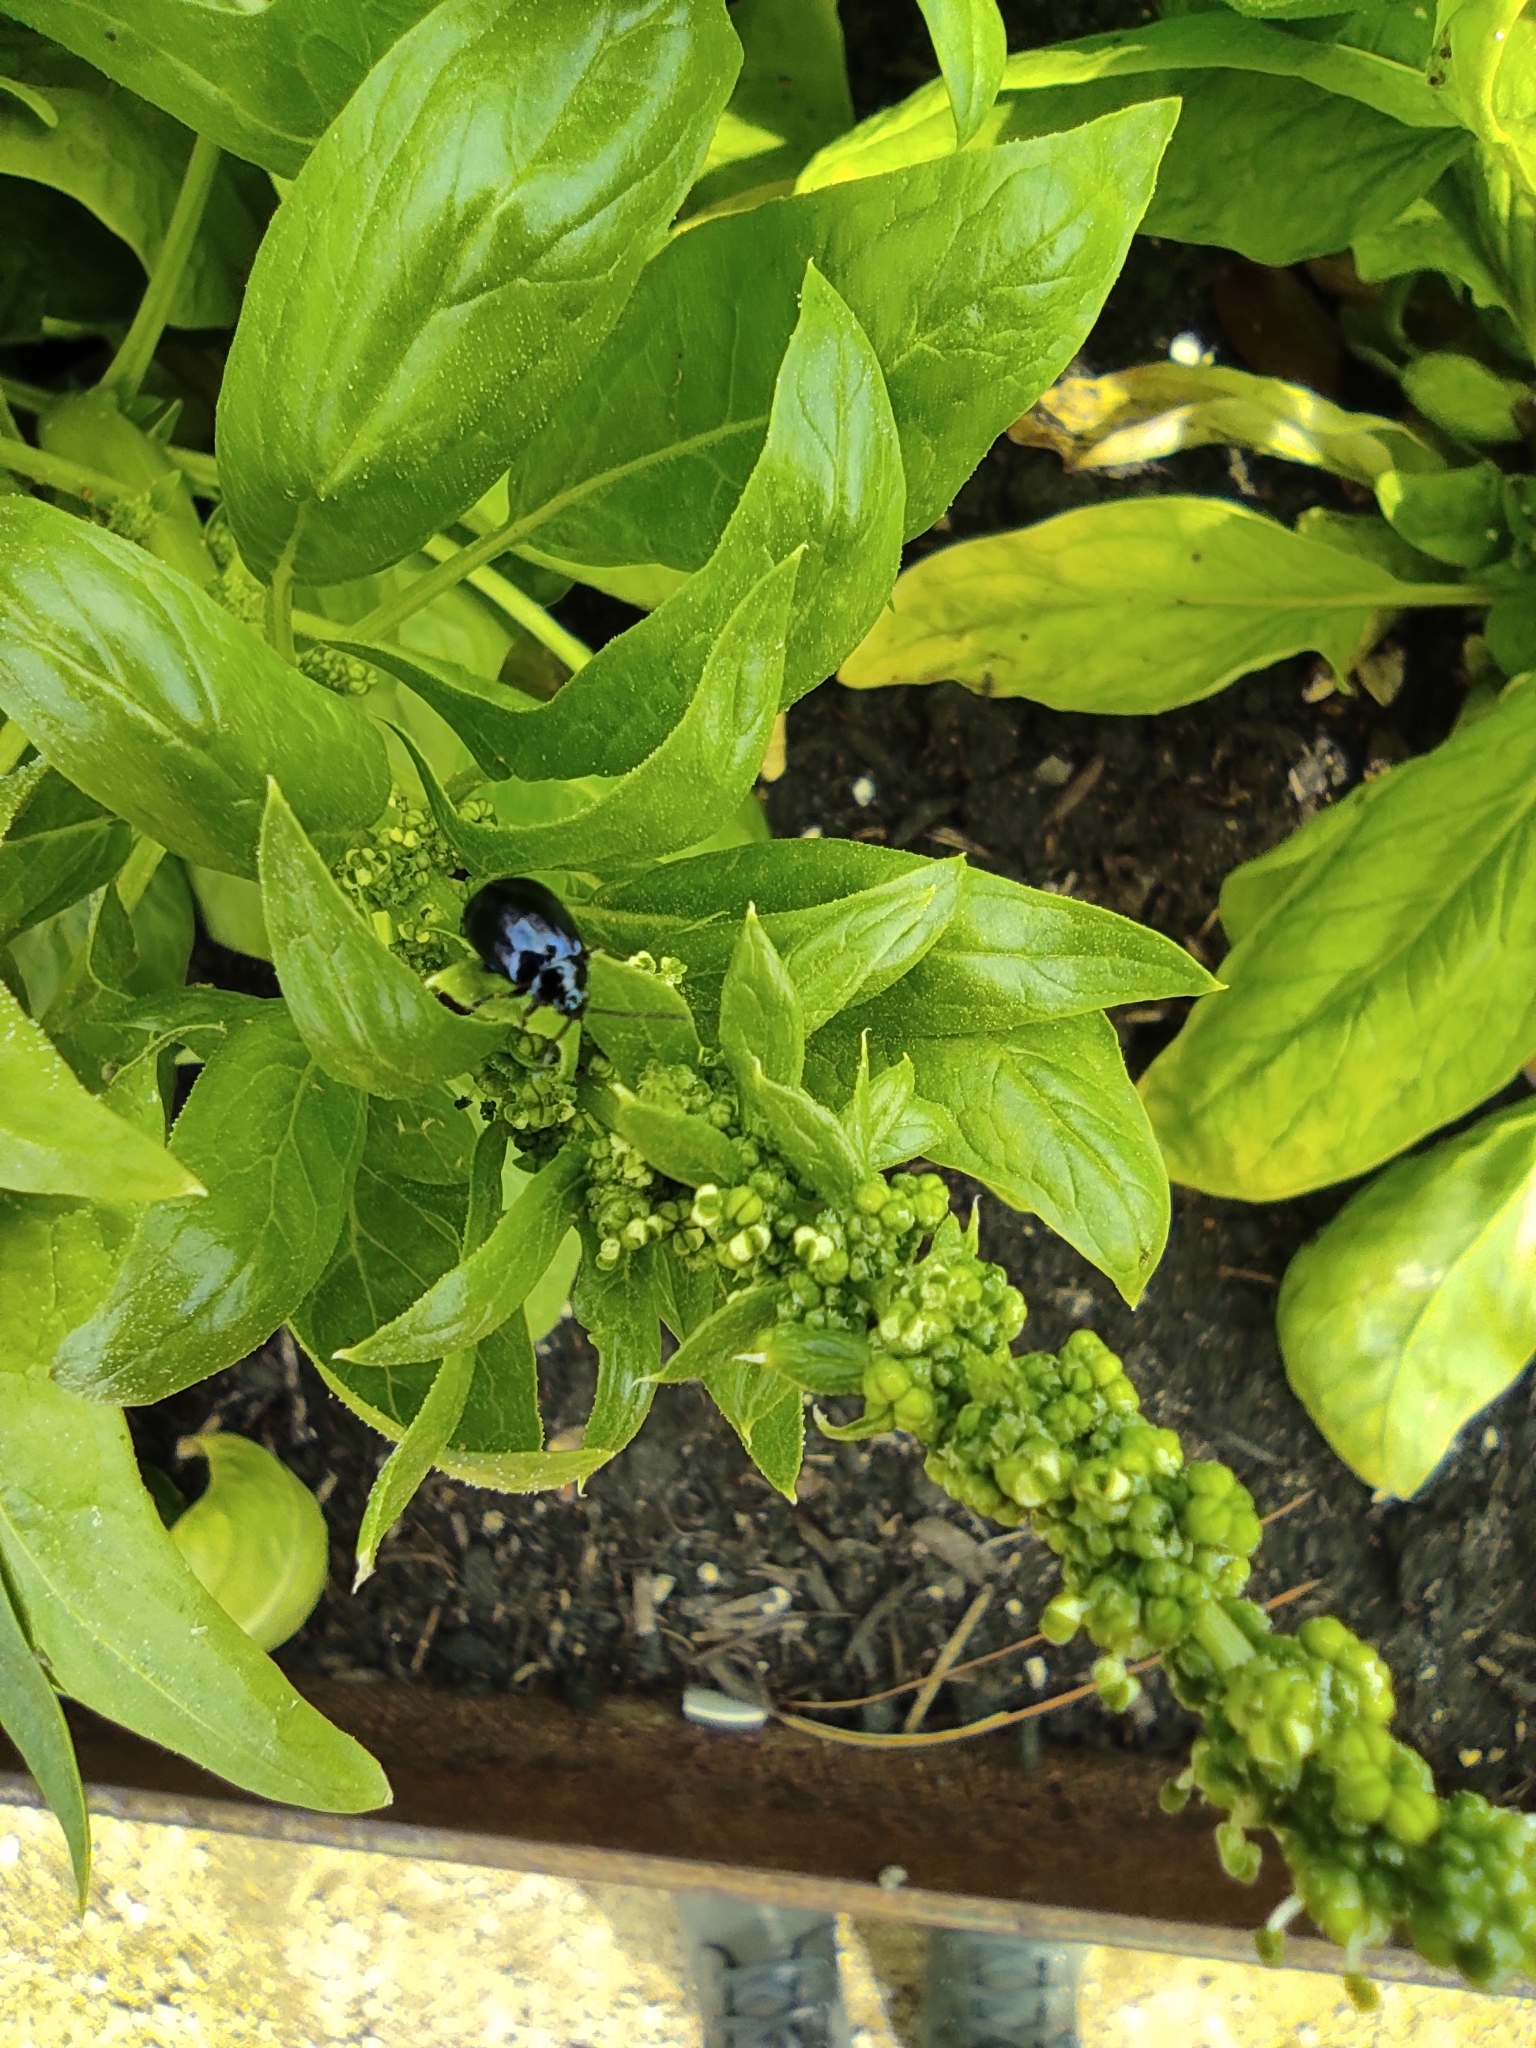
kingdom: Animalia
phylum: Arthropoda
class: Insecta
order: Coleoptera
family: Chrysomelidae
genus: Agelastica
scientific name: Agelastica alni
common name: Alder leaf beetle
